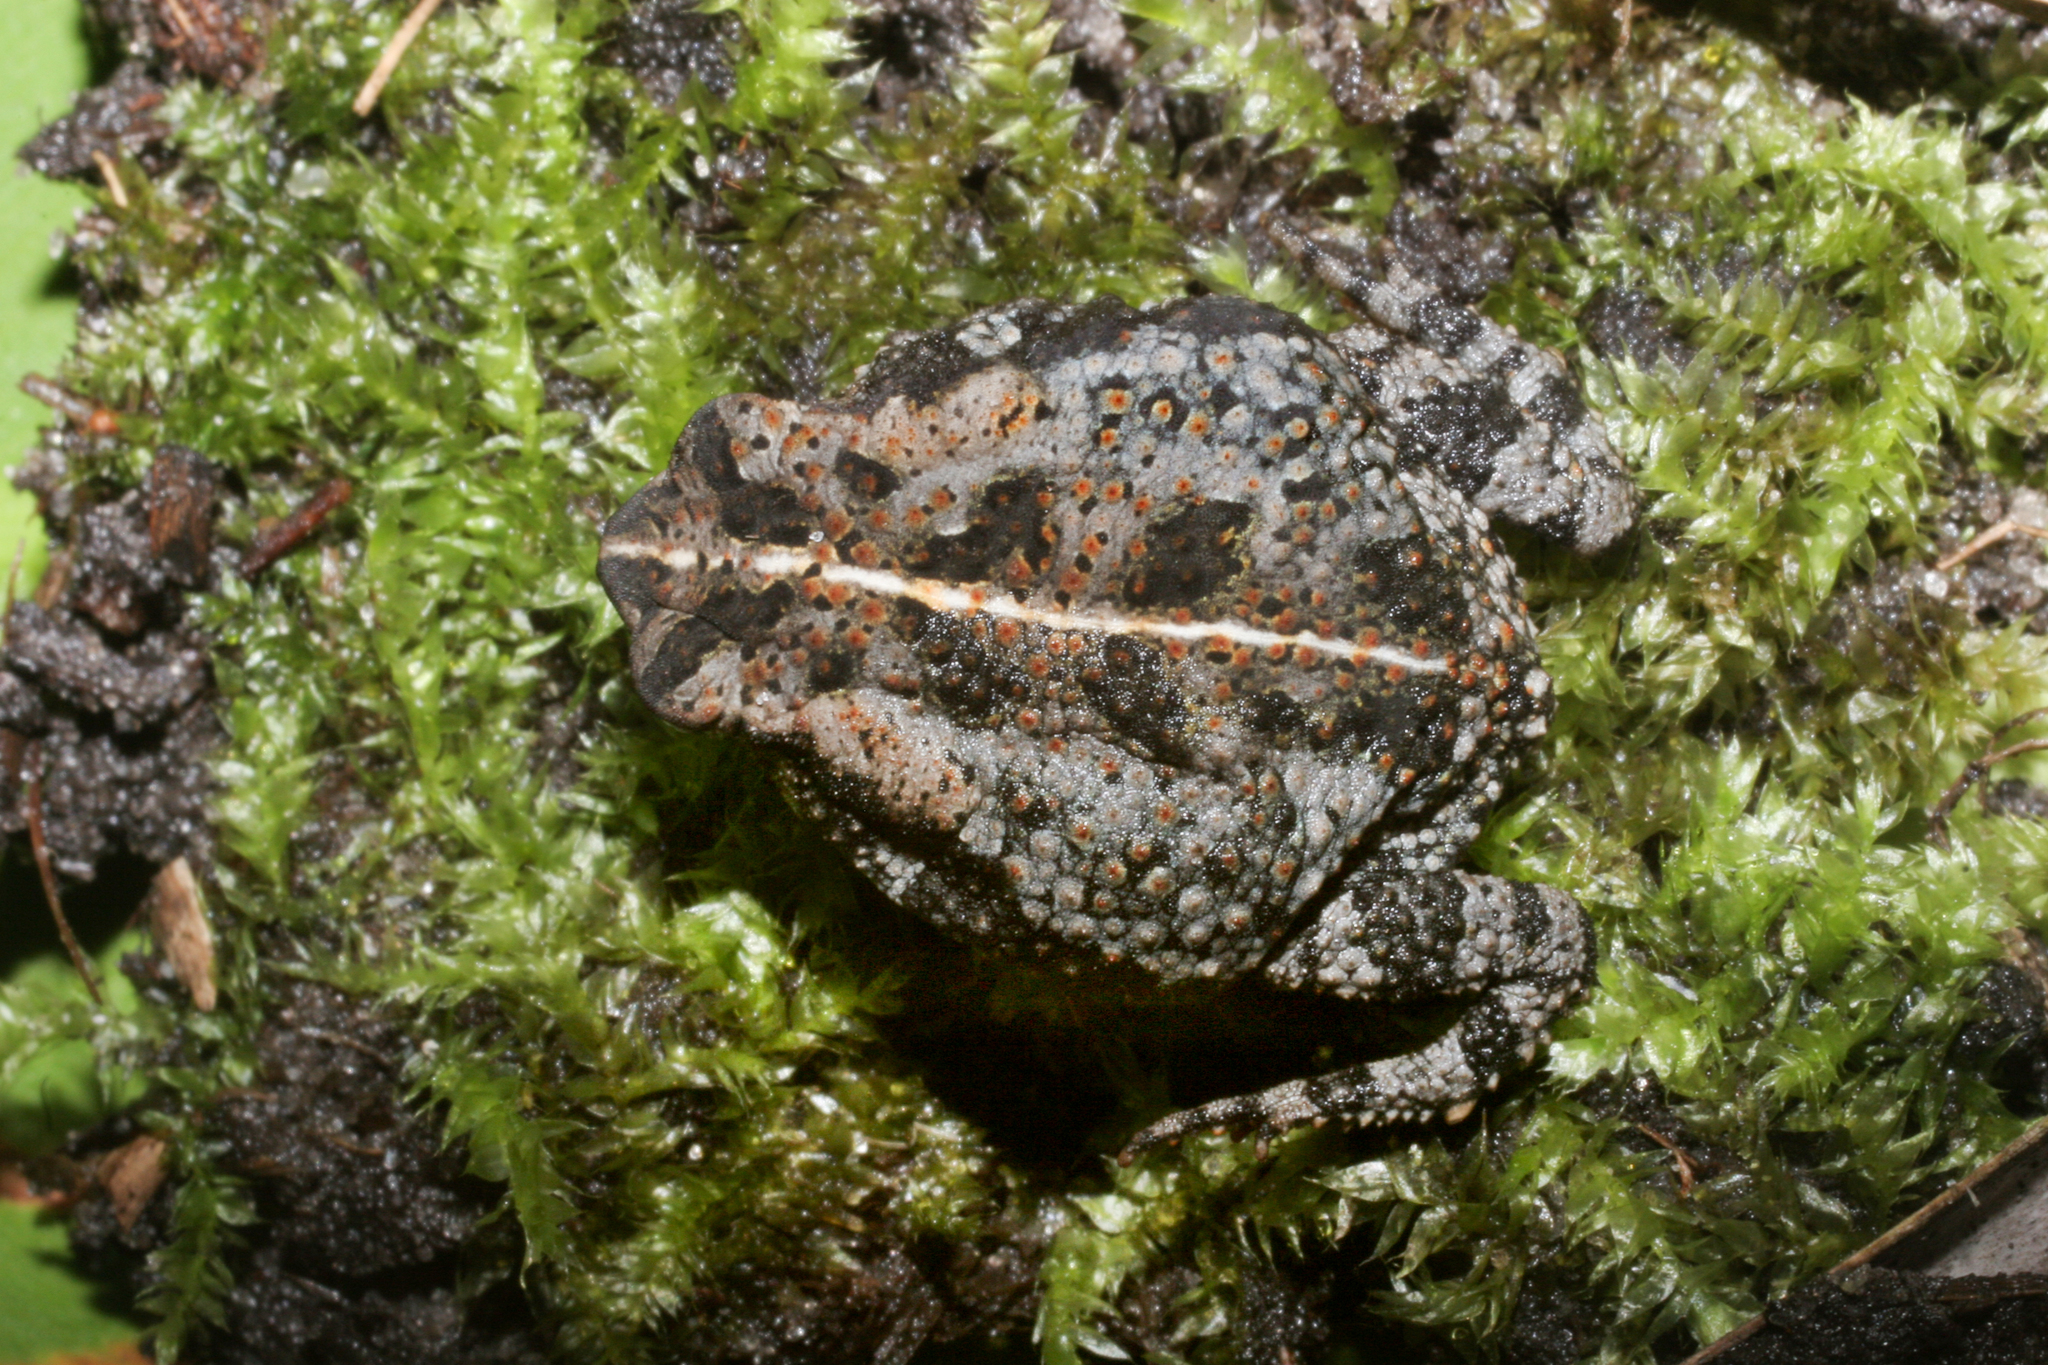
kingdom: Animalia
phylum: Chordata
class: Amphibia
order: Anura
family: Bufonidae
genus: Anaxyrus
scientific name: Anaxyrus quercicus
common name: Oak toad
